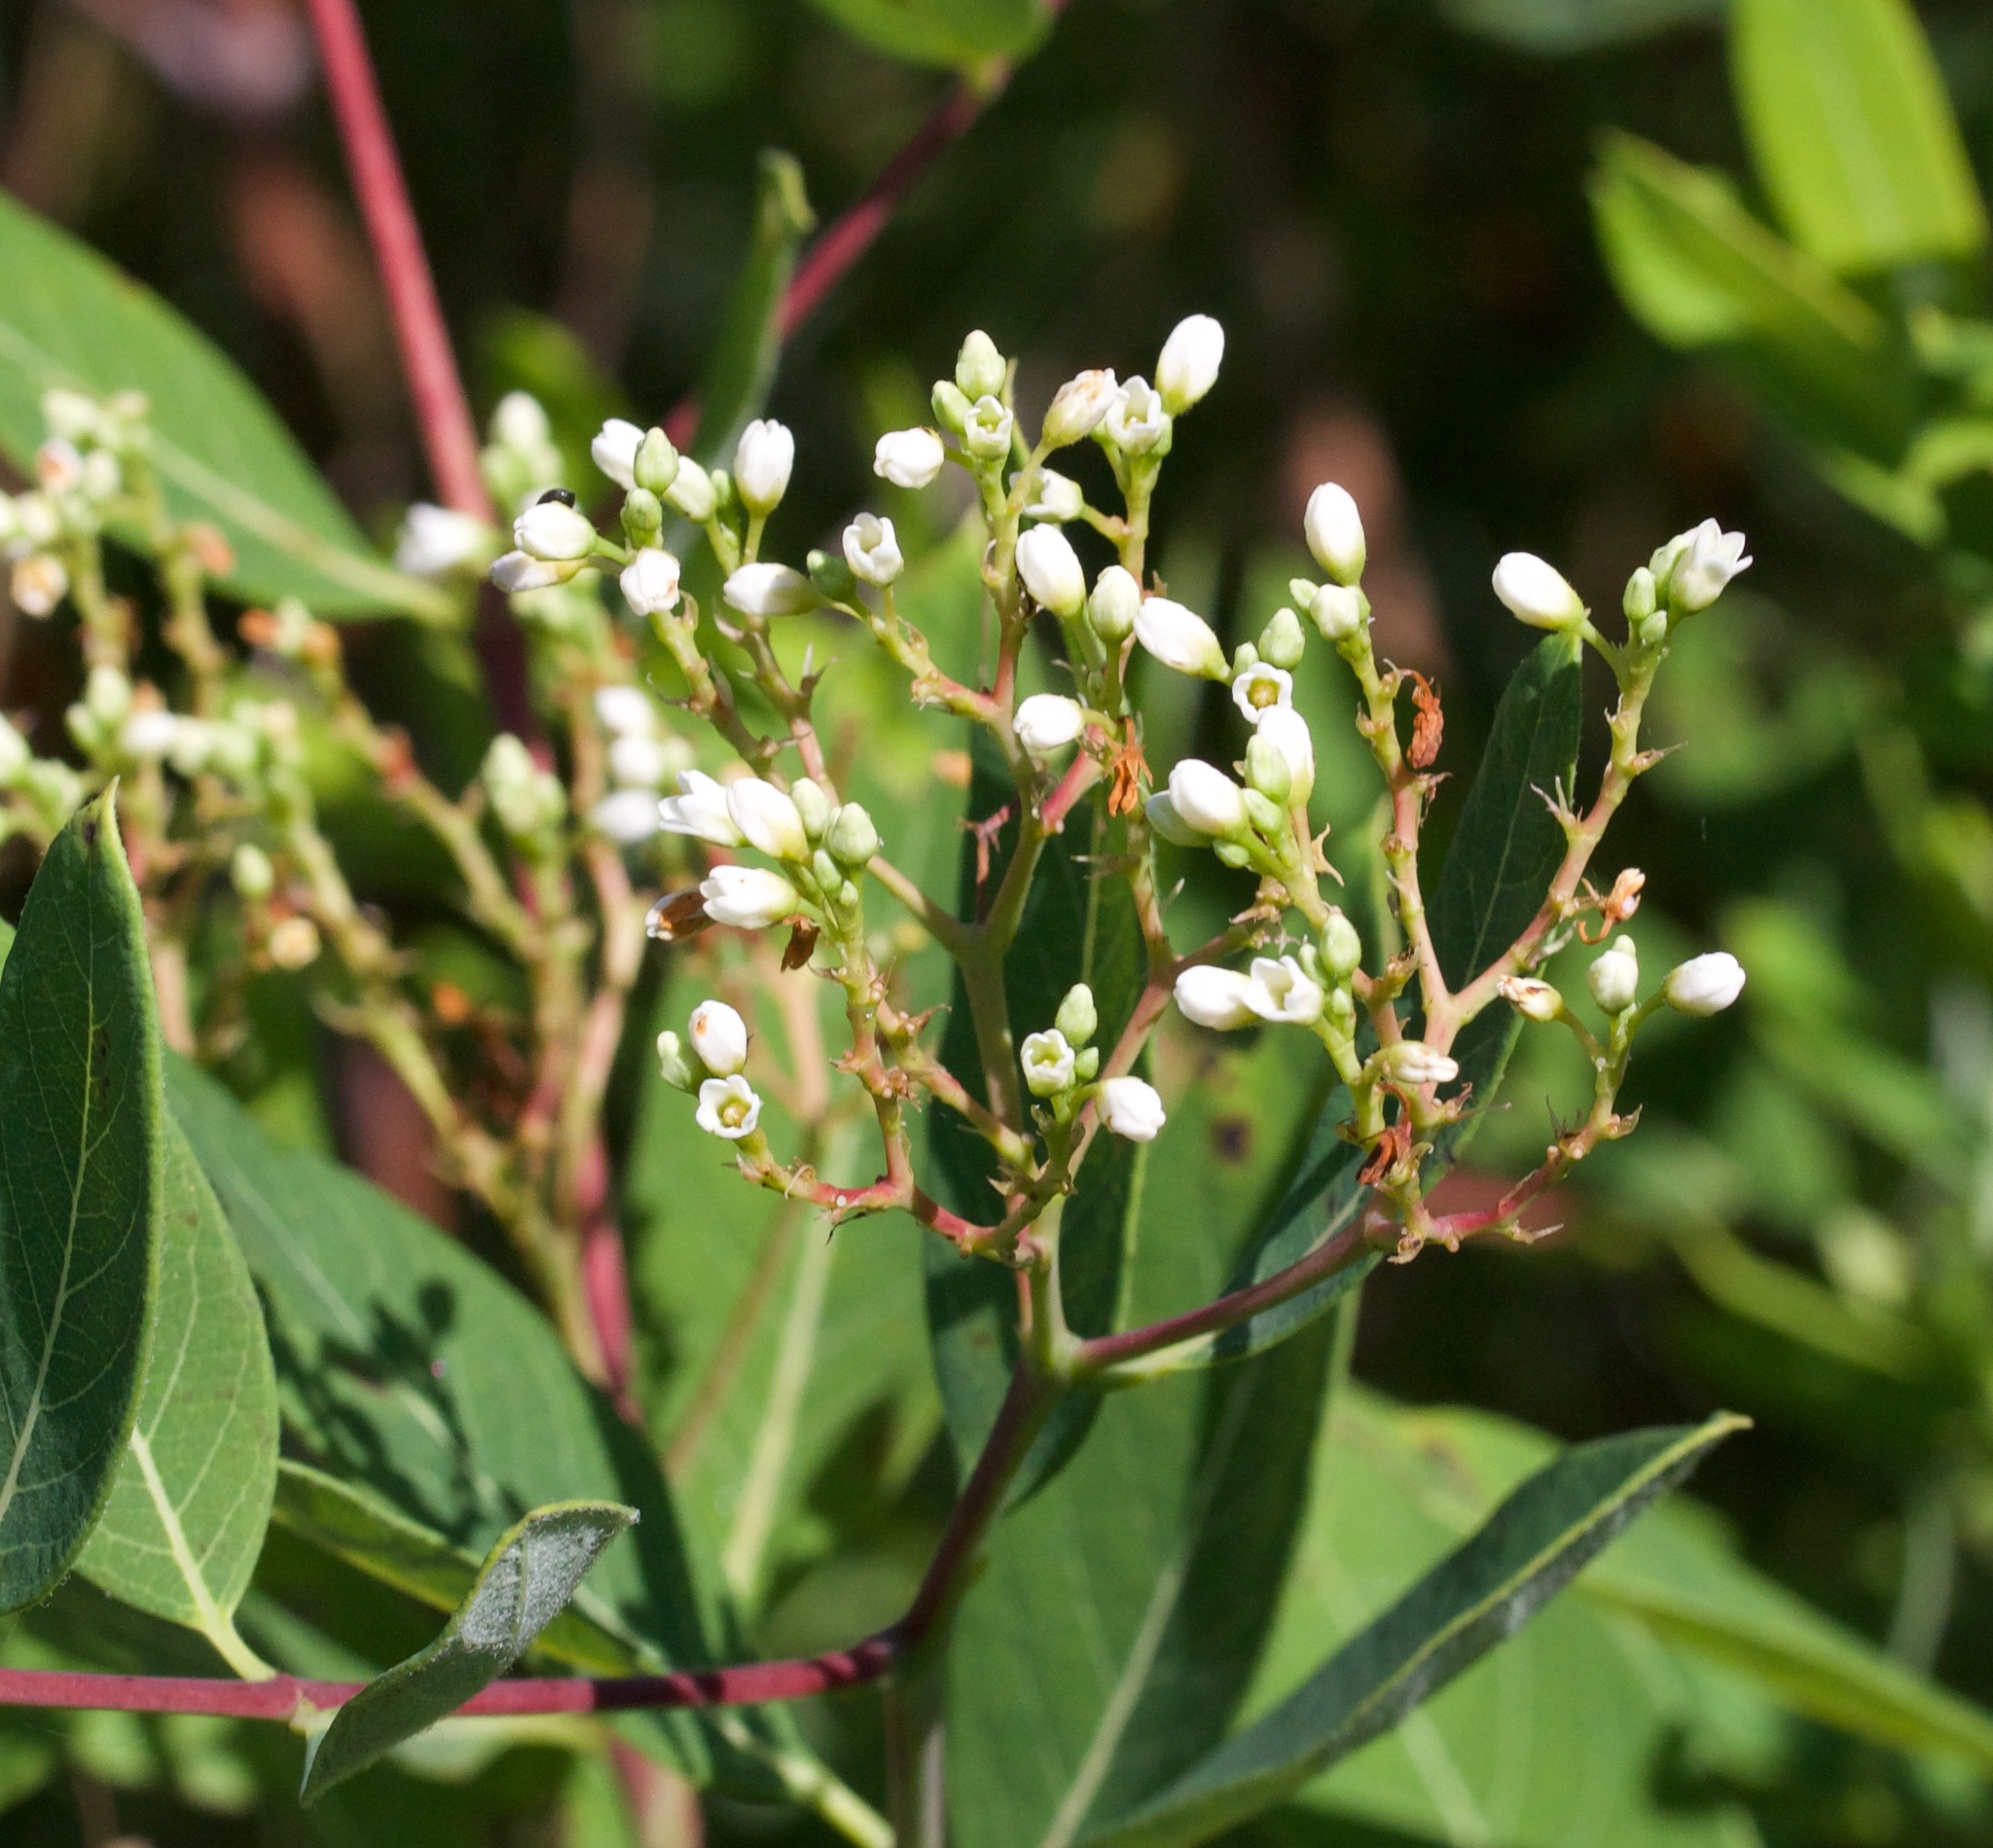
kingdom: Plantae
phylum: Tracheophyta
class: Magnoliopsida
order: Gentianales
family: Apocynaceae
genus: Apocynum
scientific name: Apocynum cannabinum
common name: Hemp dogbane
